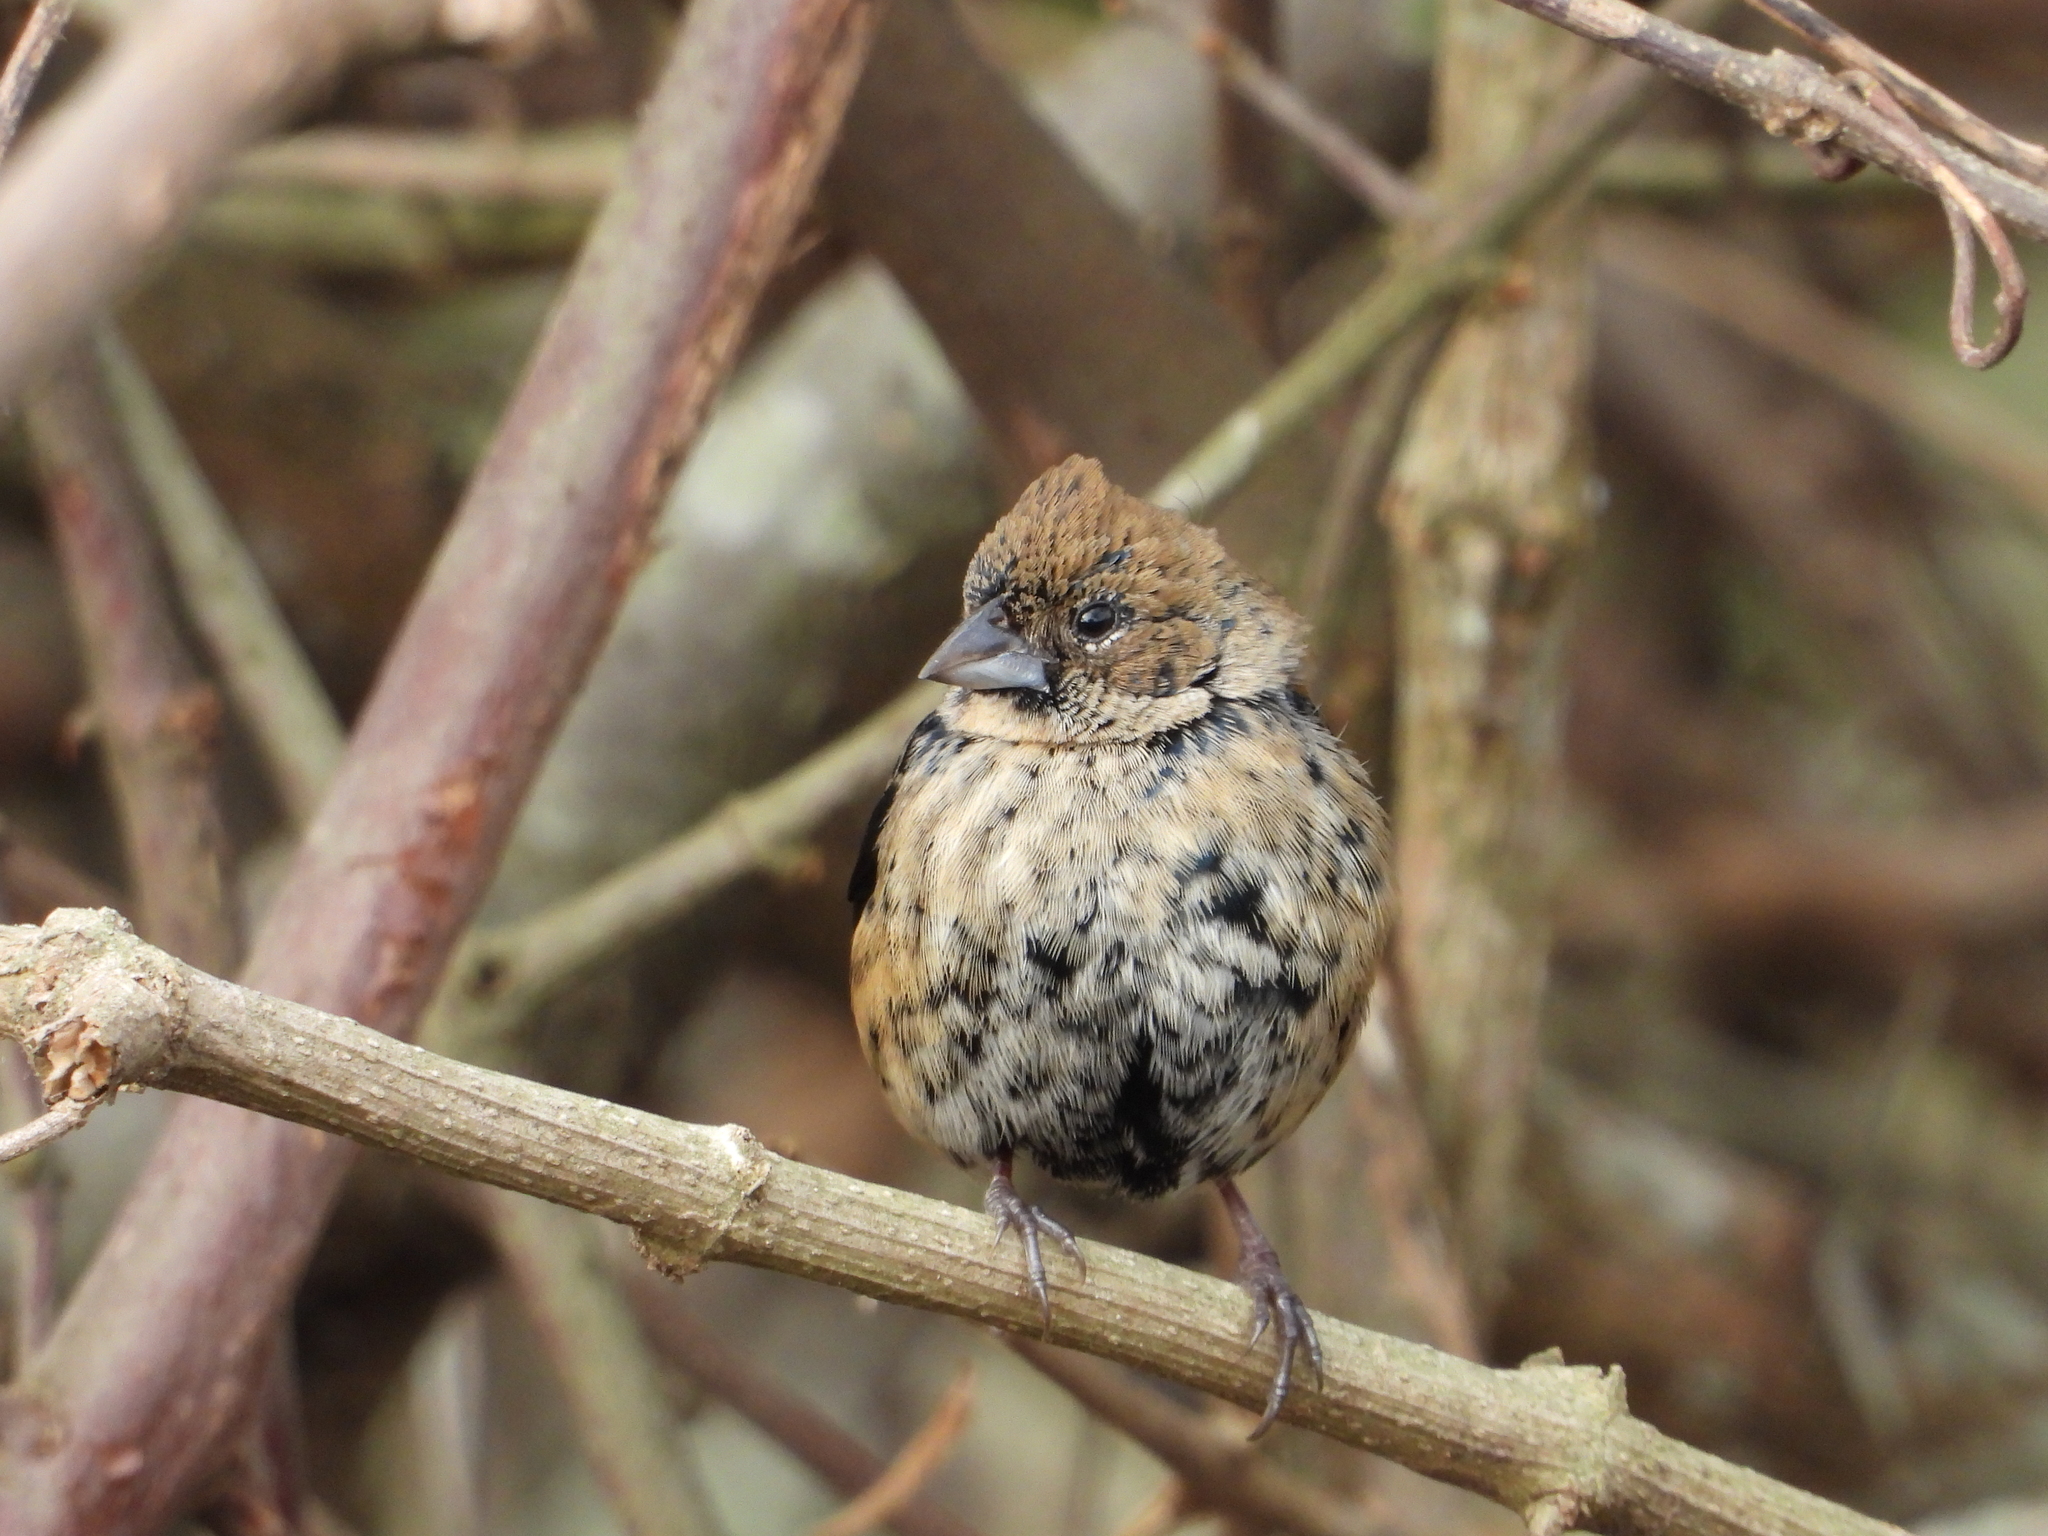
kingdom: Animalia
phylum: Chordata
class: Aves
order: Passeriformes
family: Thraupidae
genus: Volatinia
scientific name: Volatinia jacarina
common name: Blue-black grassquit
